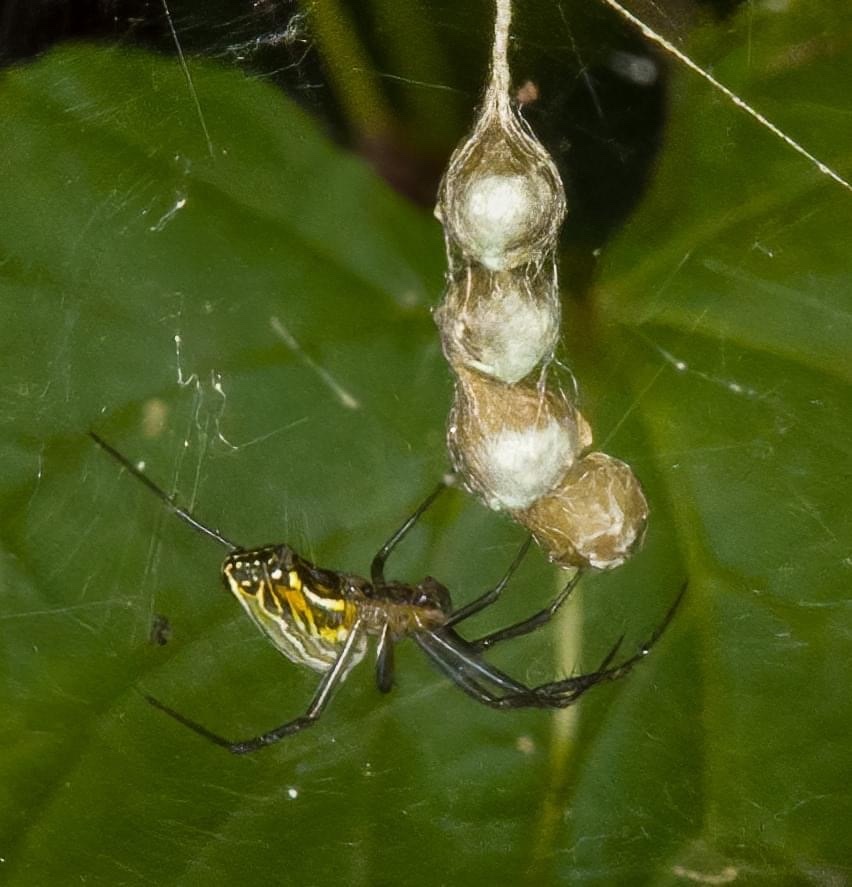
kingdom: Animalia
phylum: Arthropoda
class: Arachnida
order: Araneae
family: Araneidae
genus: Mecynogea
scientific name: Mecynogea lemniscata
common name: Orb weavers
